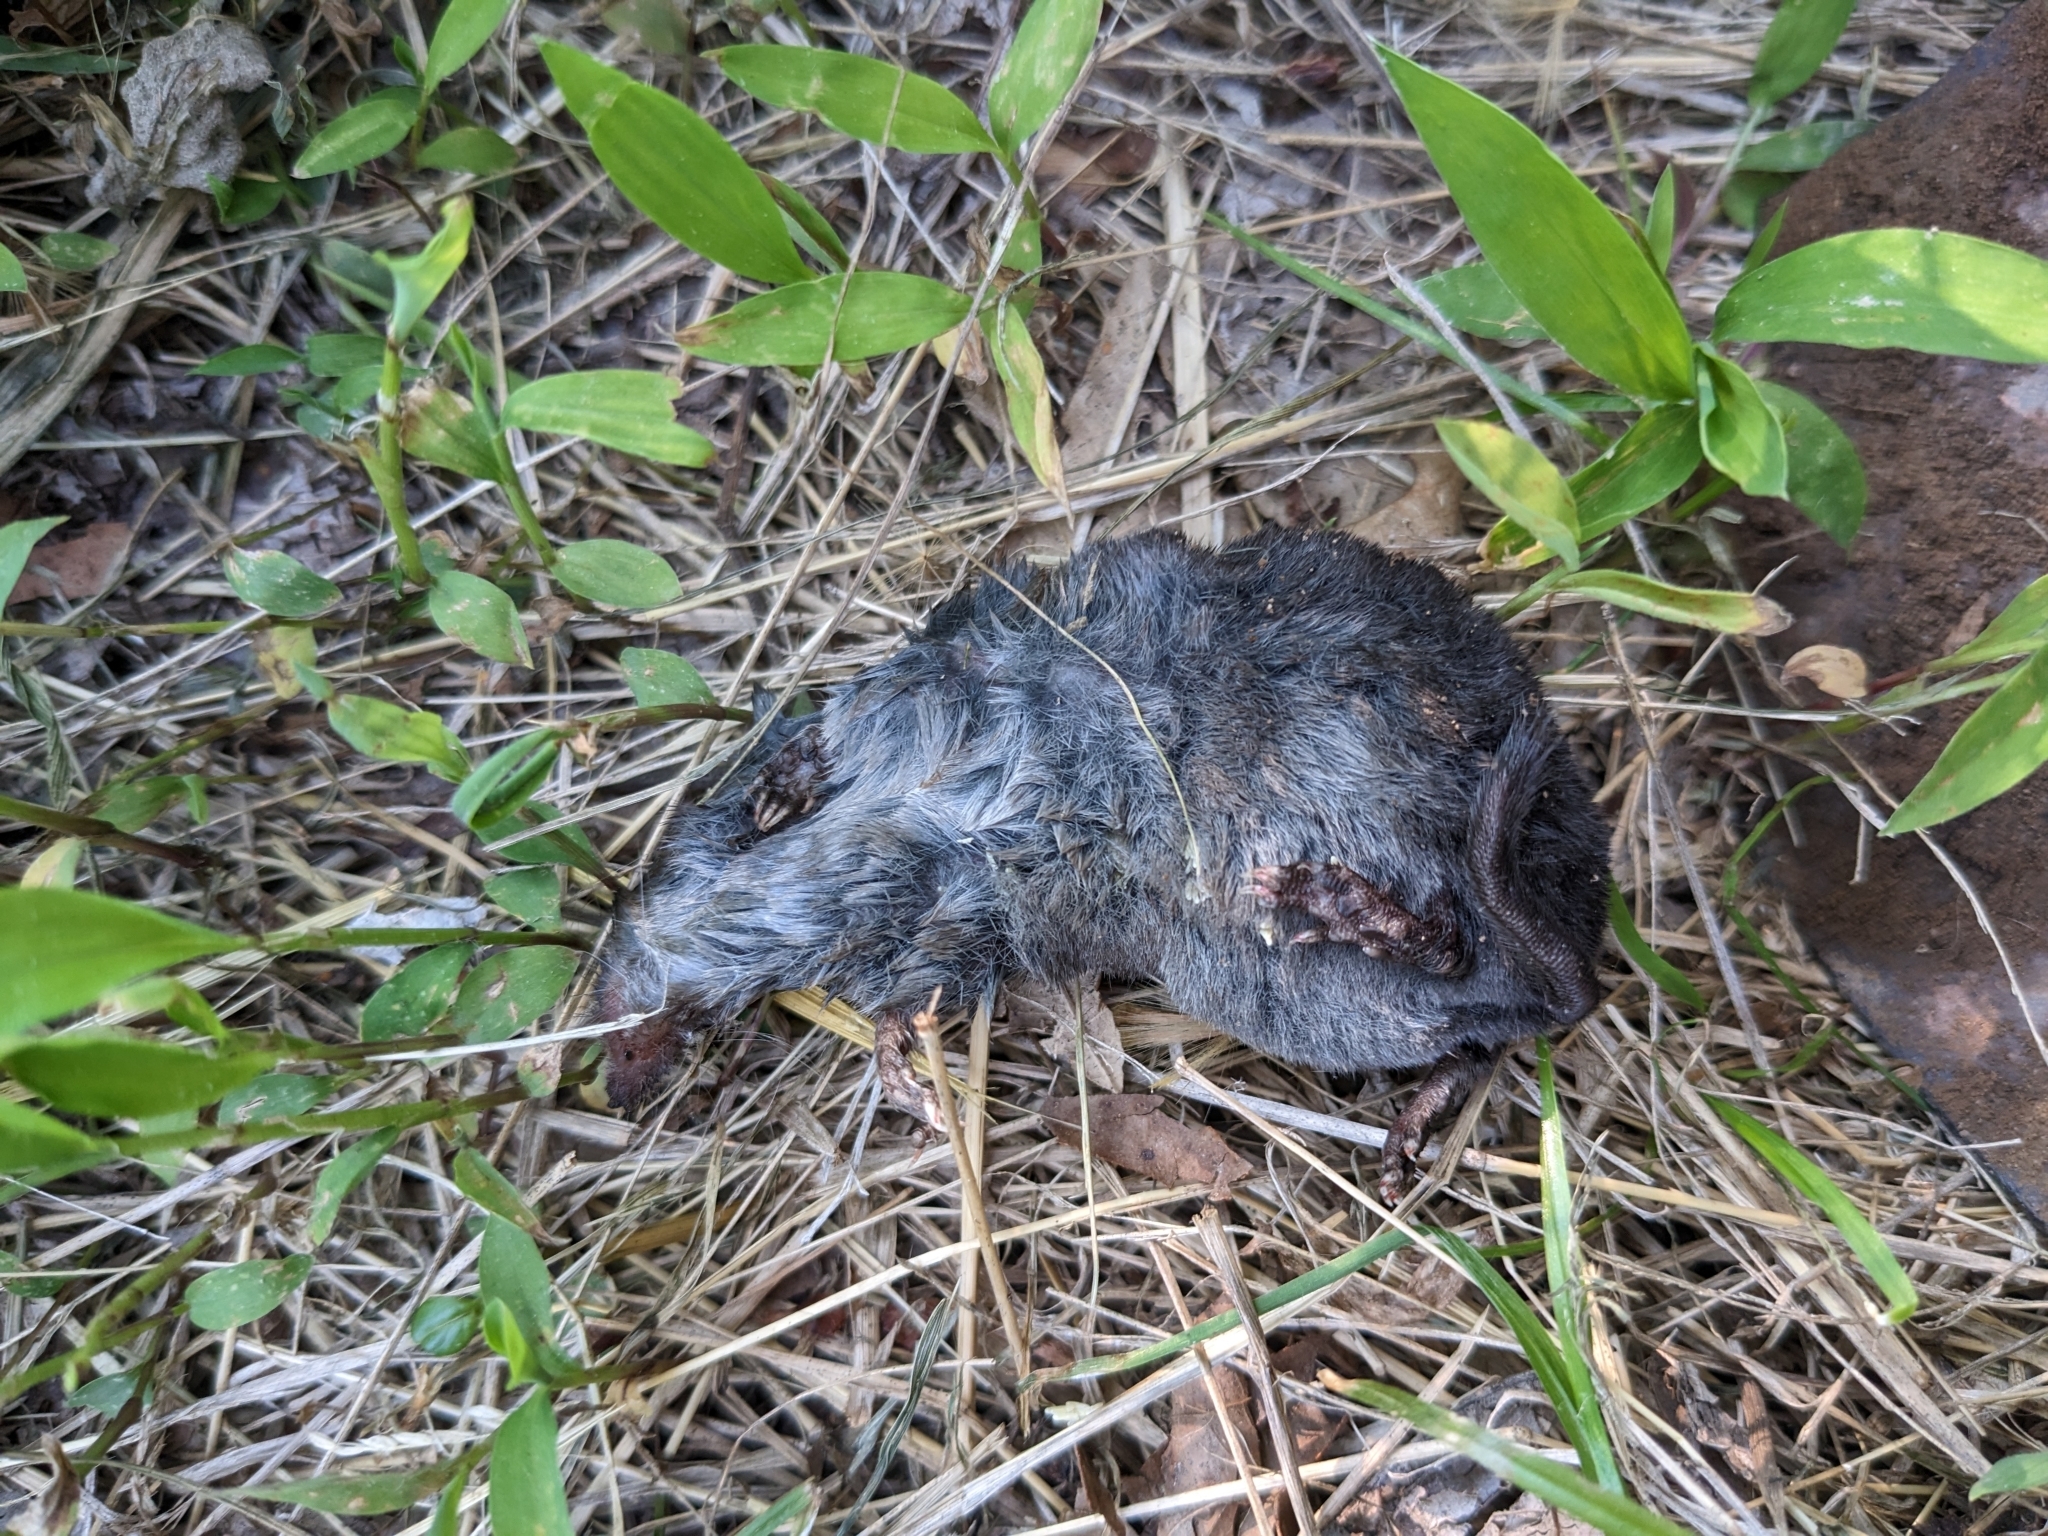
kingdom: Animalia
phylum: Chordata
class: Mammalia
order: Soricomorpha
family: Soricidae
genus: Blarina
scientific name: Blarina brevicauda
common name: Northern short-tailed shrew
